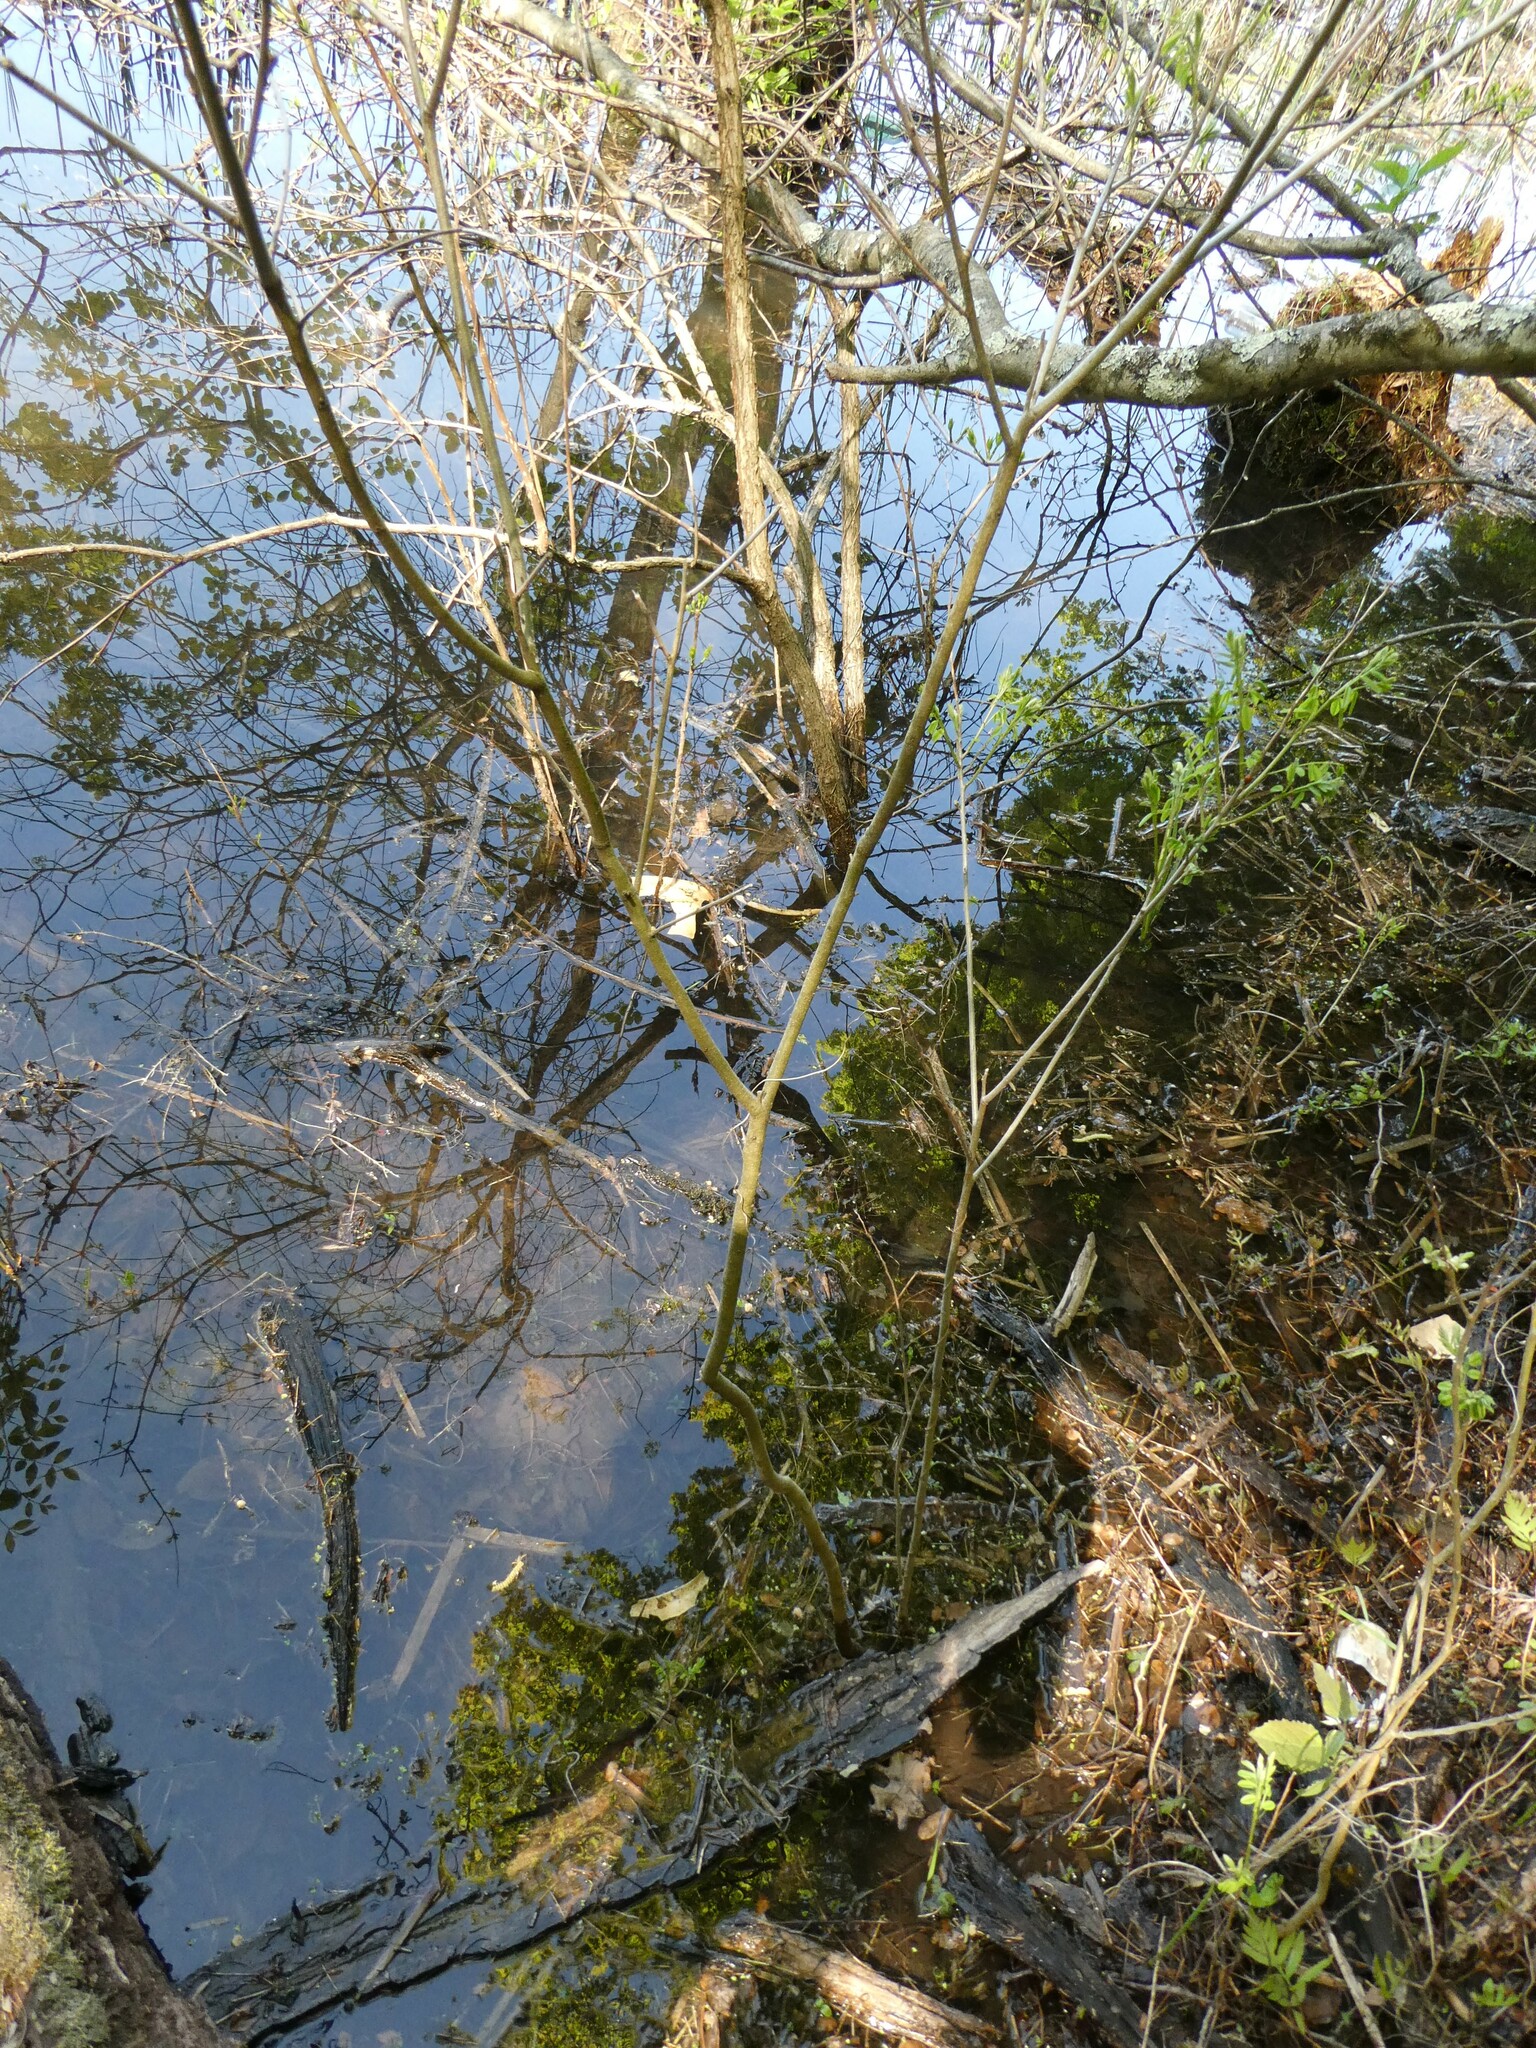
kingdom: Plantae
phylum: Tracheophyta
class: Magnoliopsida
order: Fabales
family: Fabaceae
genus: Amorpha
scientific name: Amorpha fruticosa
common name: False indigo
